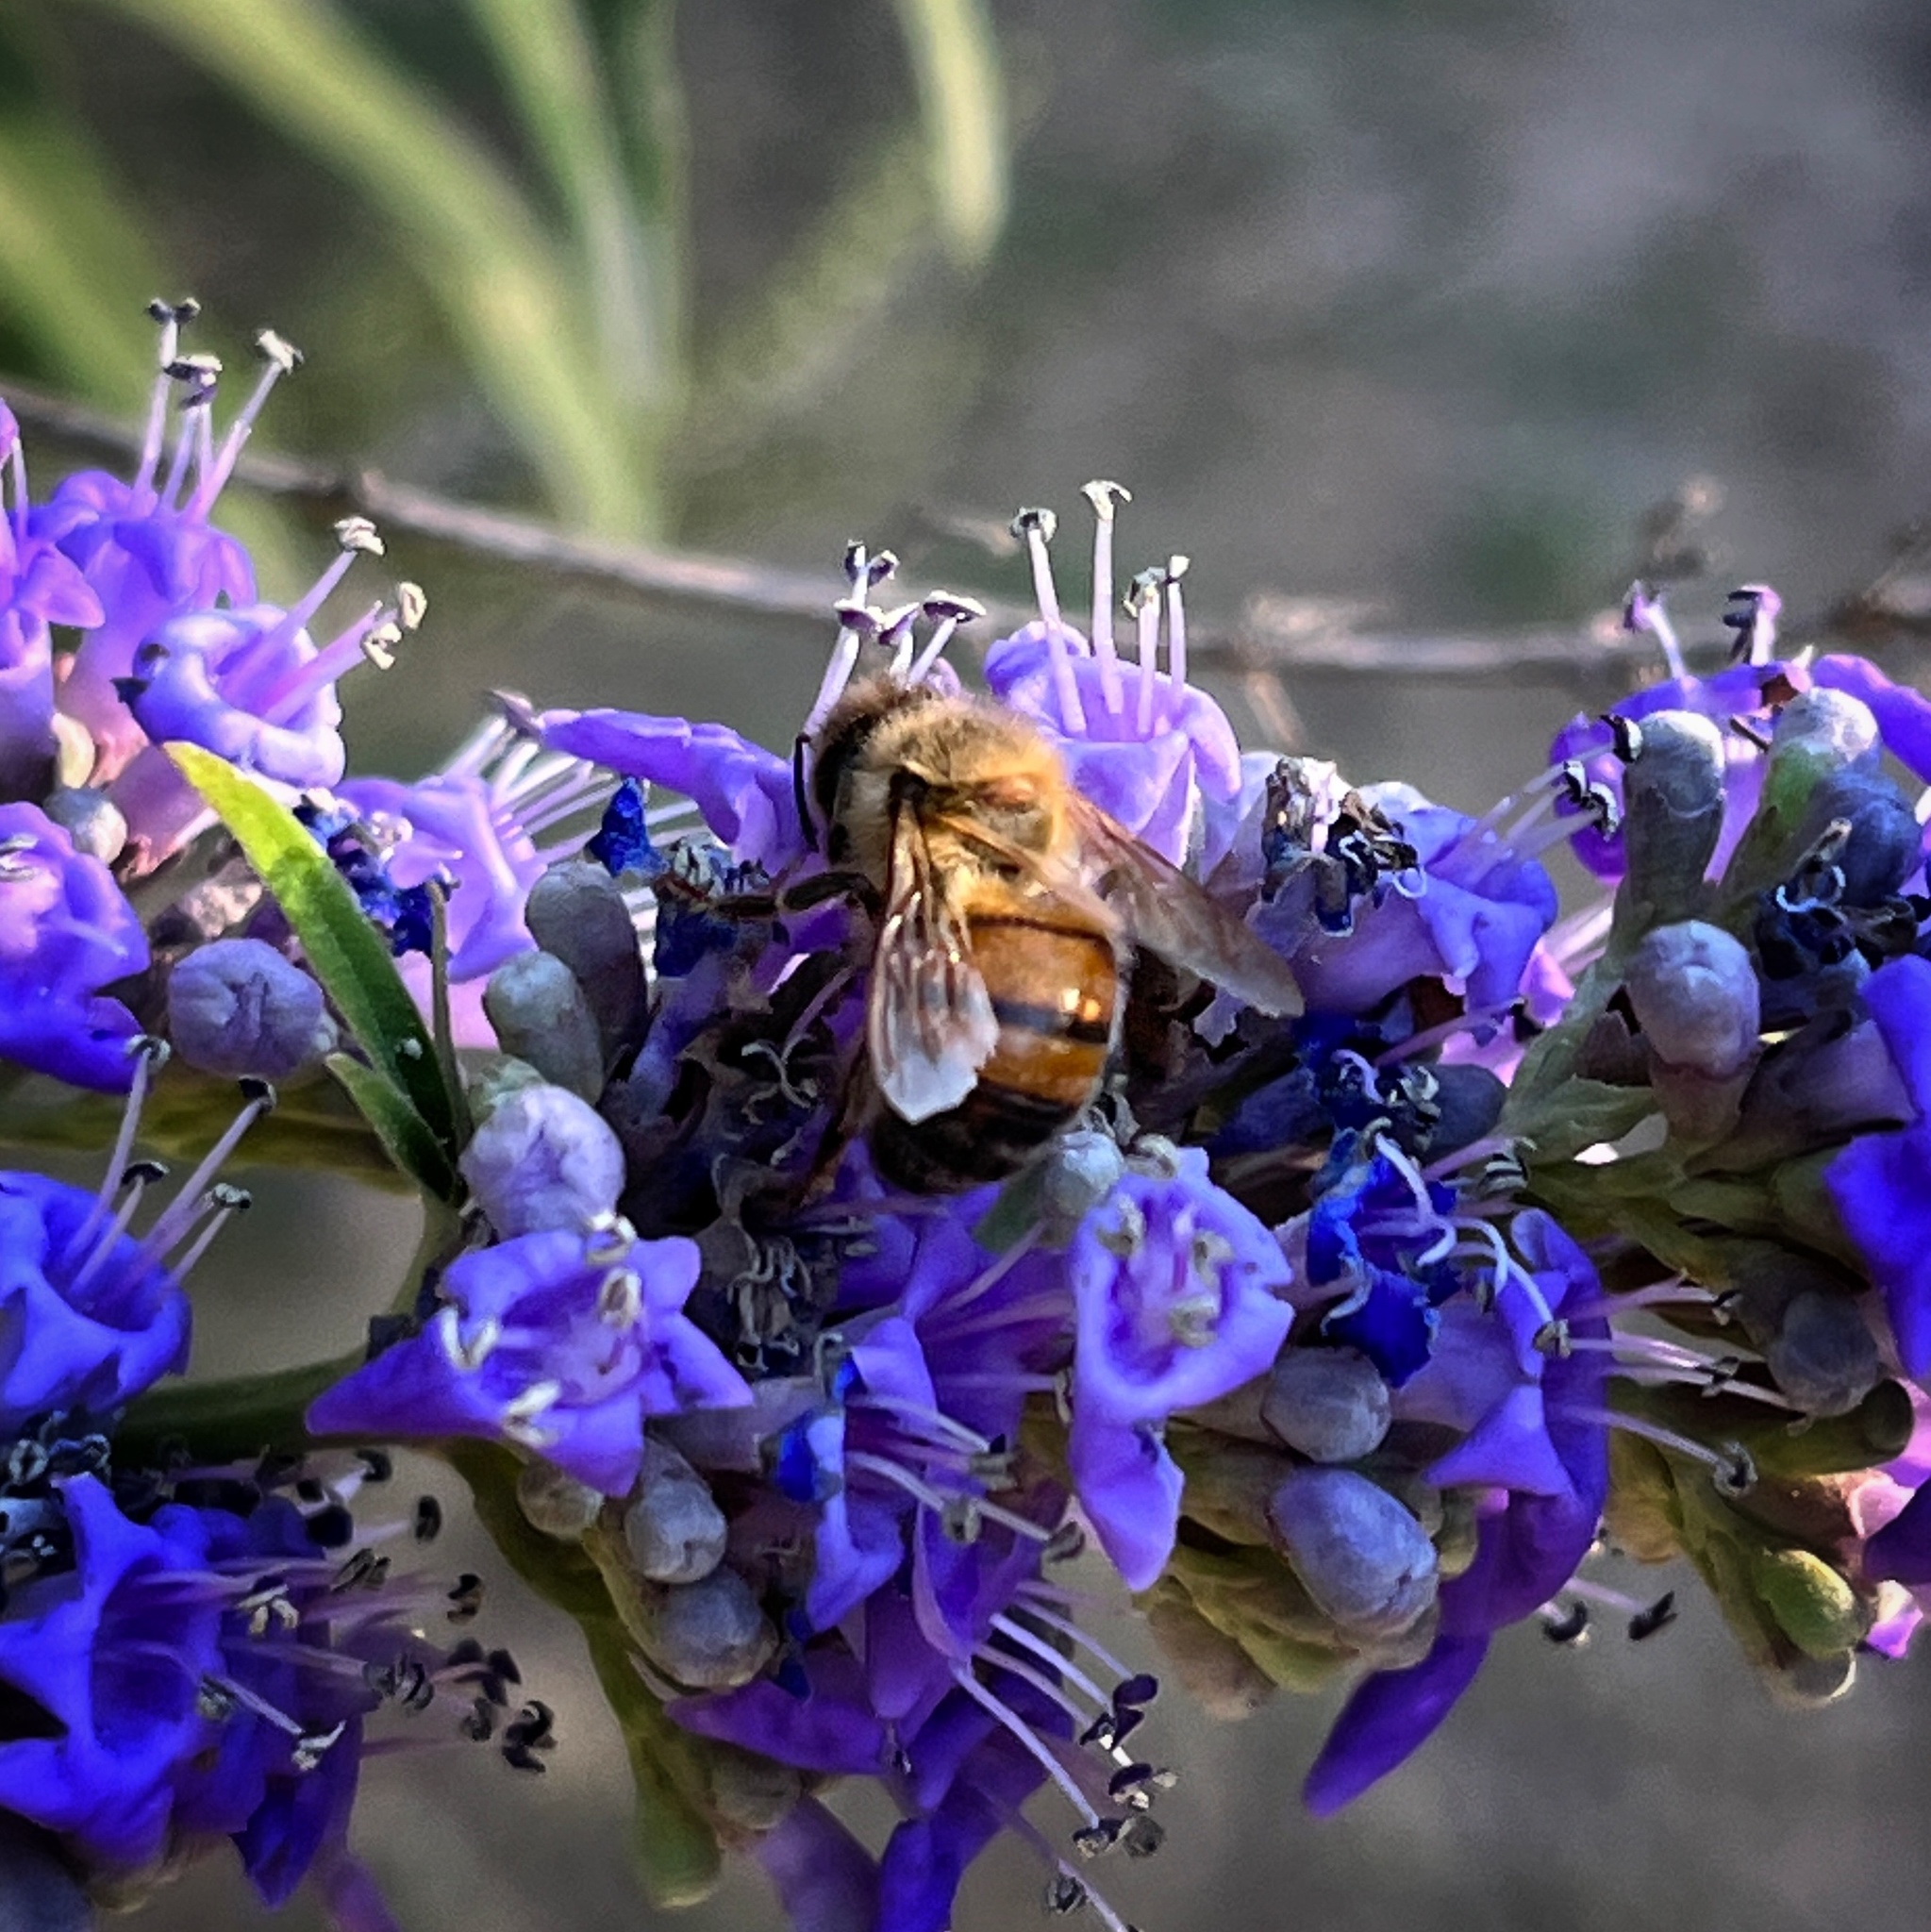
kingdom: Animalia
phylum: Arthropoda
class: Insecta
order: Hymenoptera
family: Apidae
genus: Apis
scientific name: Apis mellifera
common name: Honey bee
